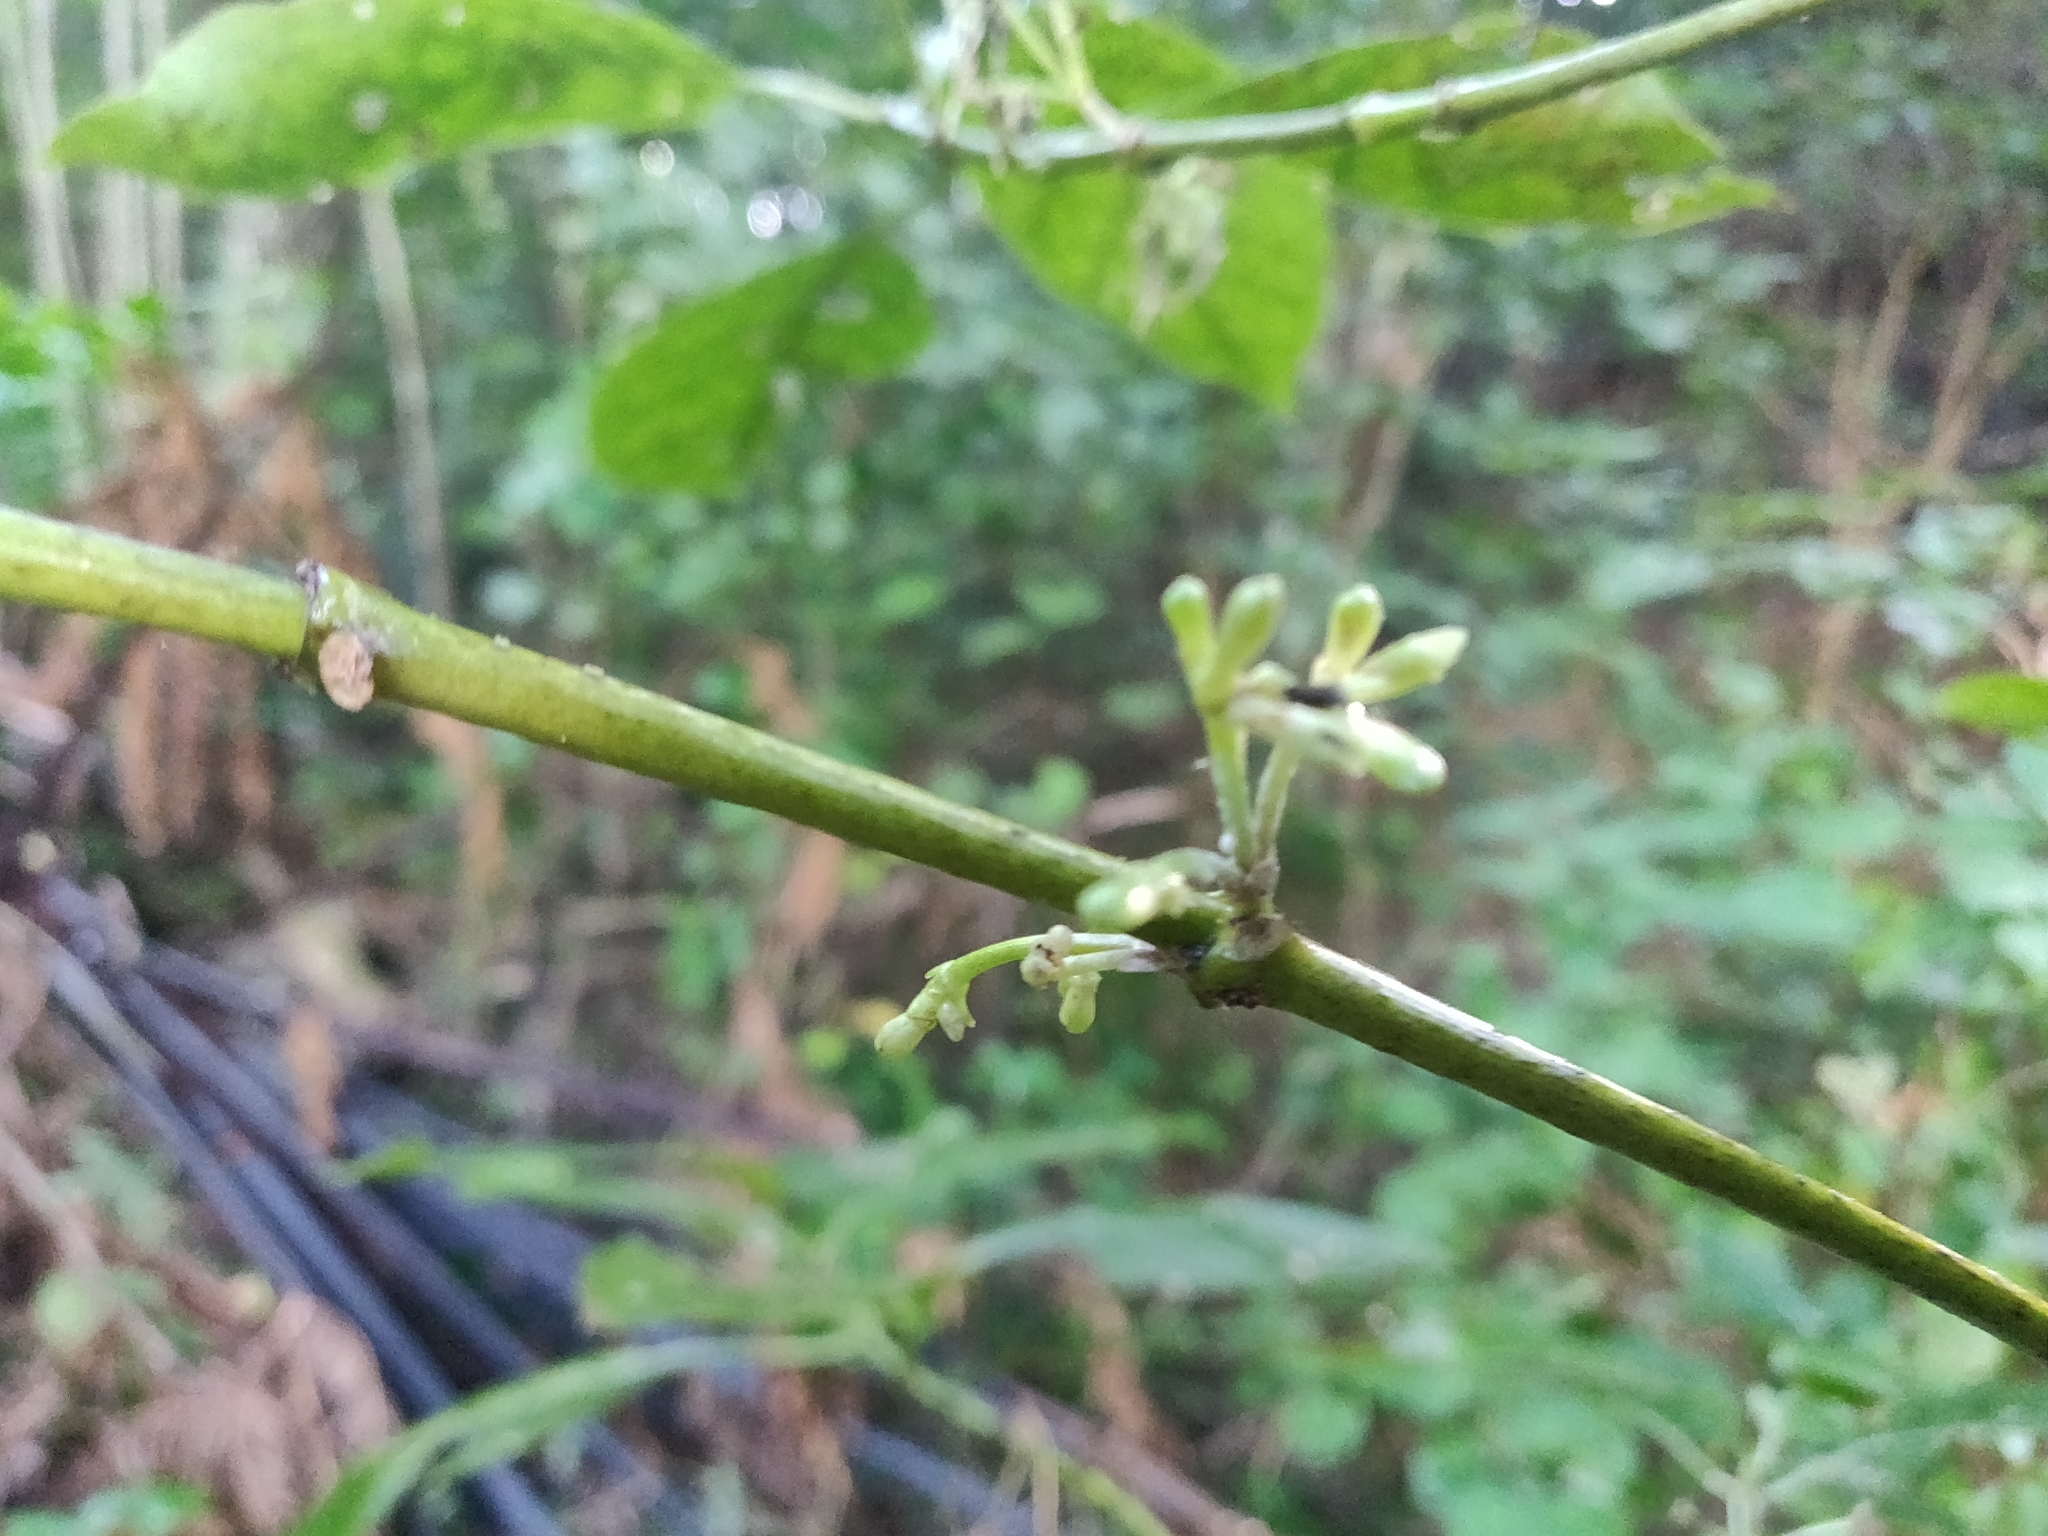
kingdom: Plantae
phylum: Tracheophyta
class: Magnoliopsida
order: Gentianales
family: Rubiaceae
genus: Coprosma
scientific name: Coprosma autumnalis
